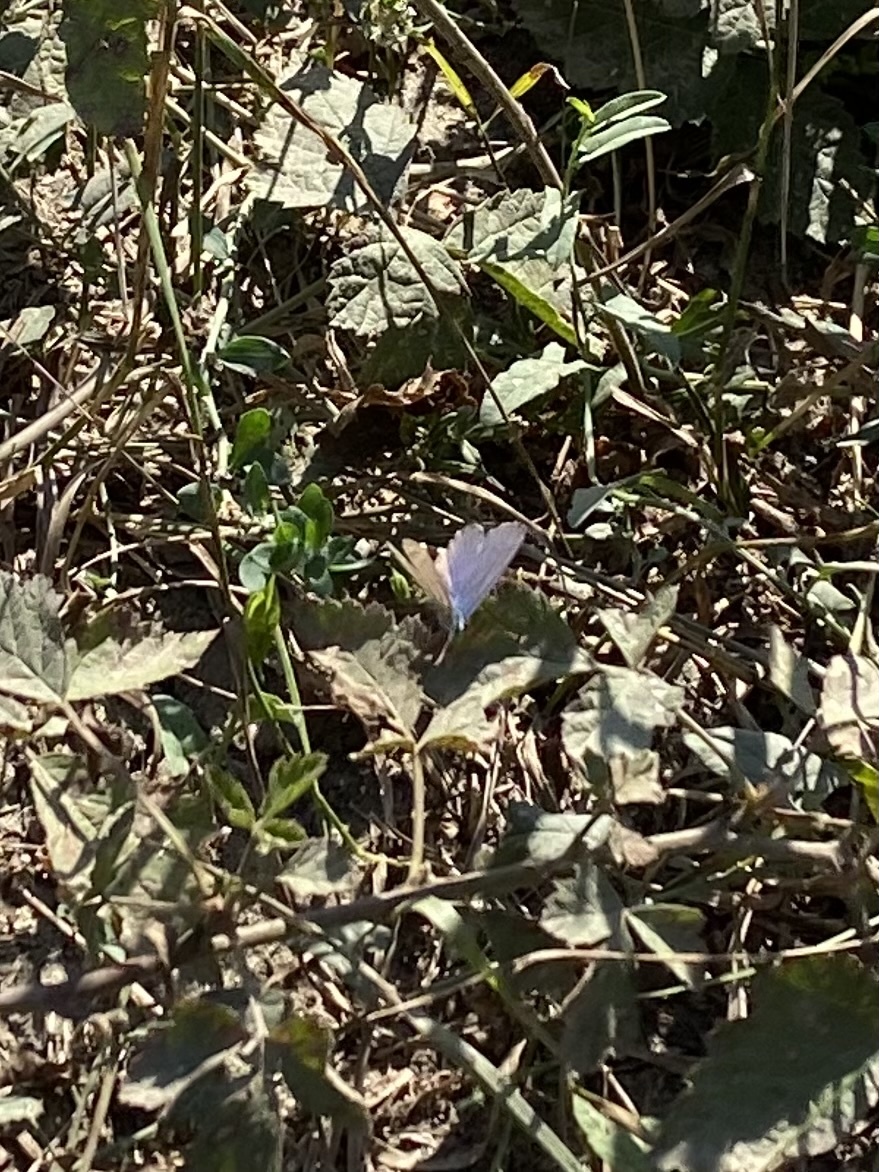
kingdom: Animalia
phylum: Arthropoda
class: Insecta
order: Lepidoptera
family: Lycaenidae
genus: Lycaeides
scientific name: Lycaeides idas
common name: Northern blue
